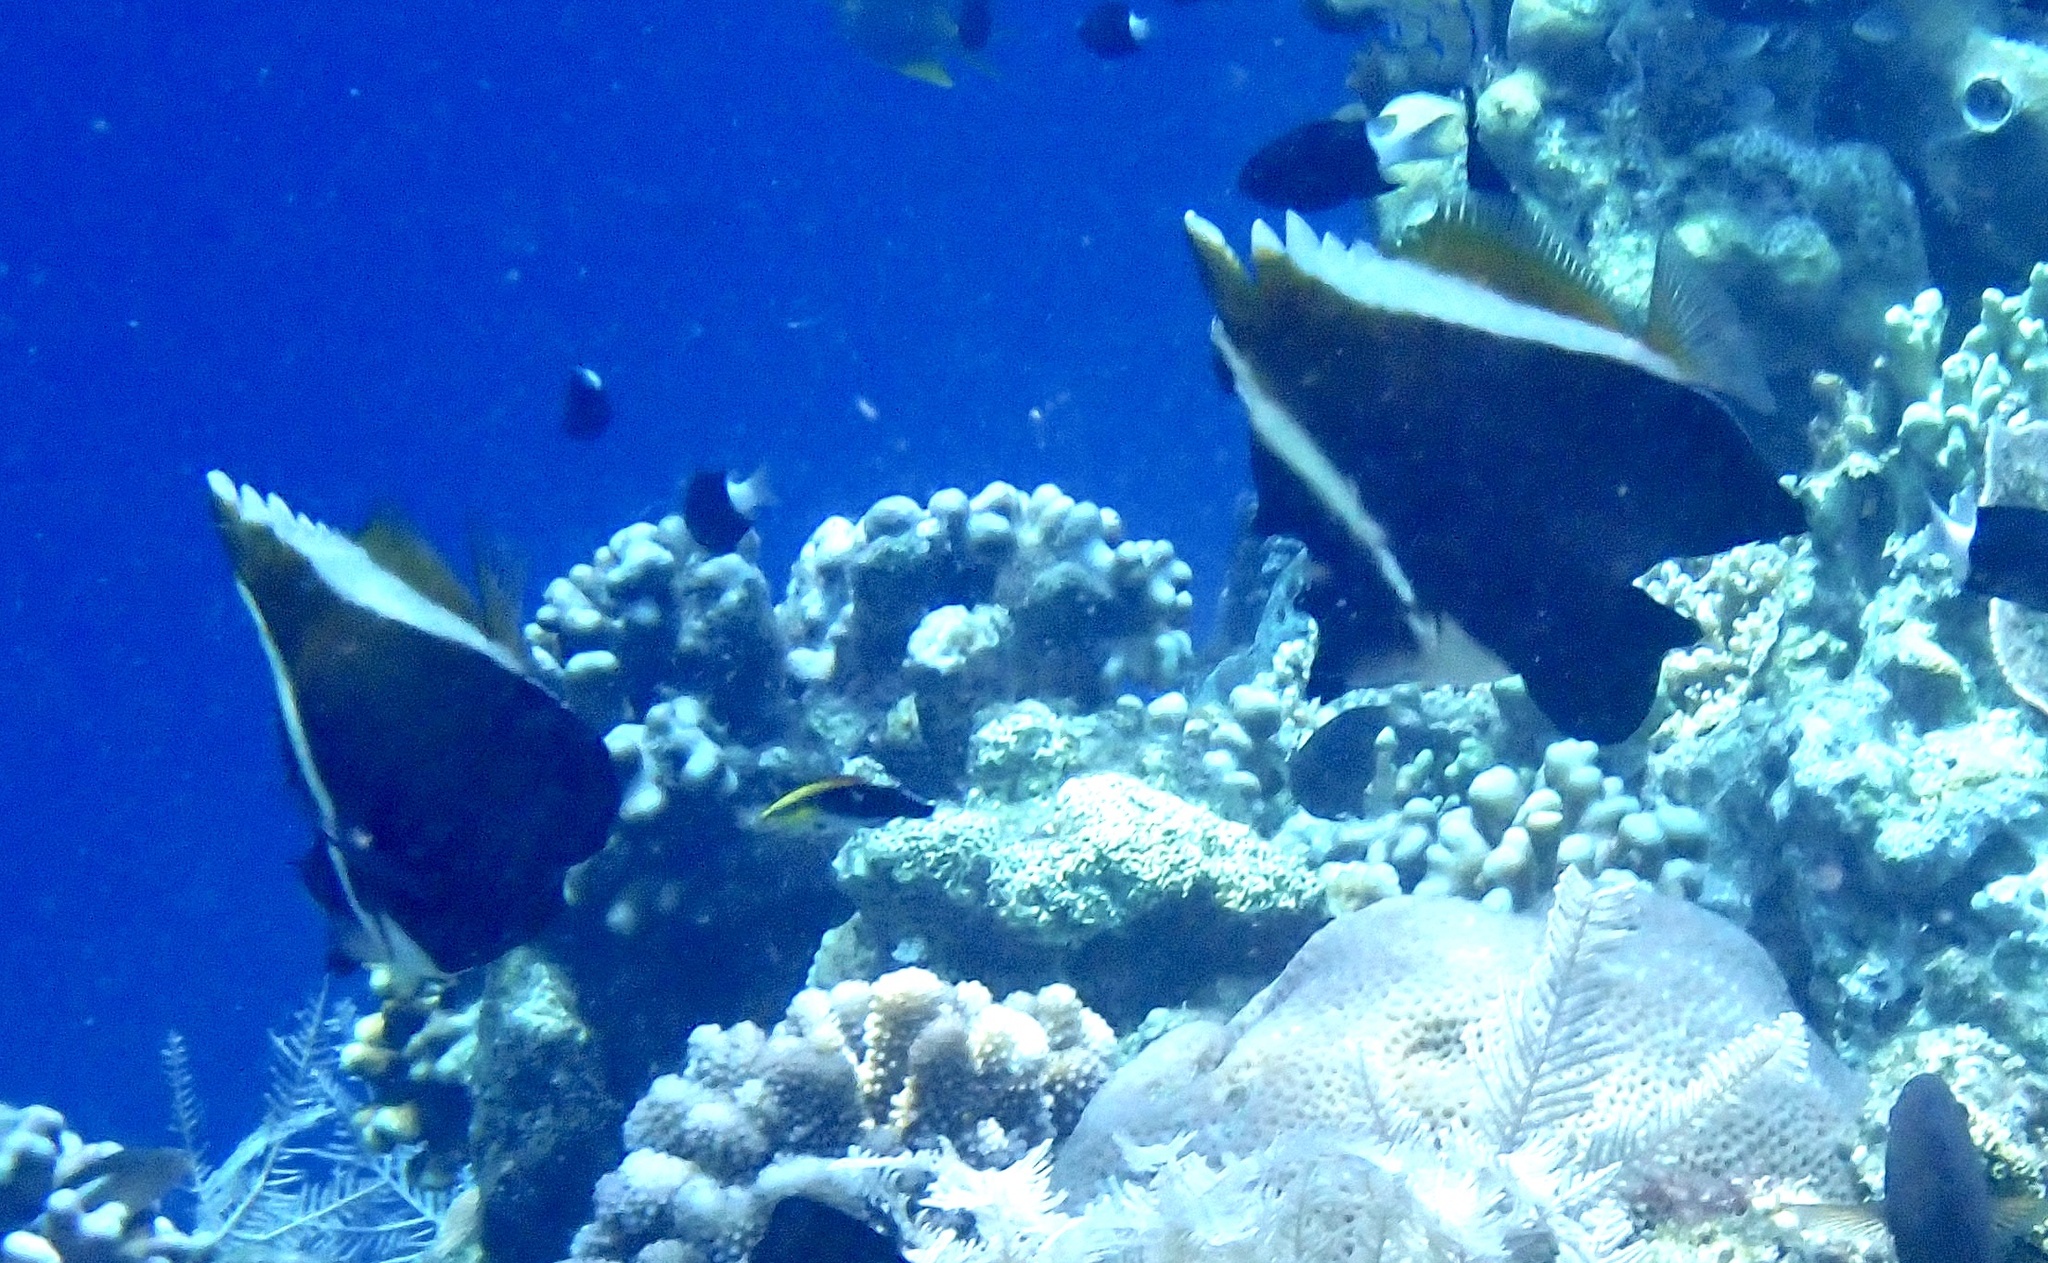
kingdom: Animalia
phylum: Chordata
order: Perciformes
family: Chaetodontidae
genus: Heniochus
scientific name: Heniochus varius
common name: Horned bannerfish
